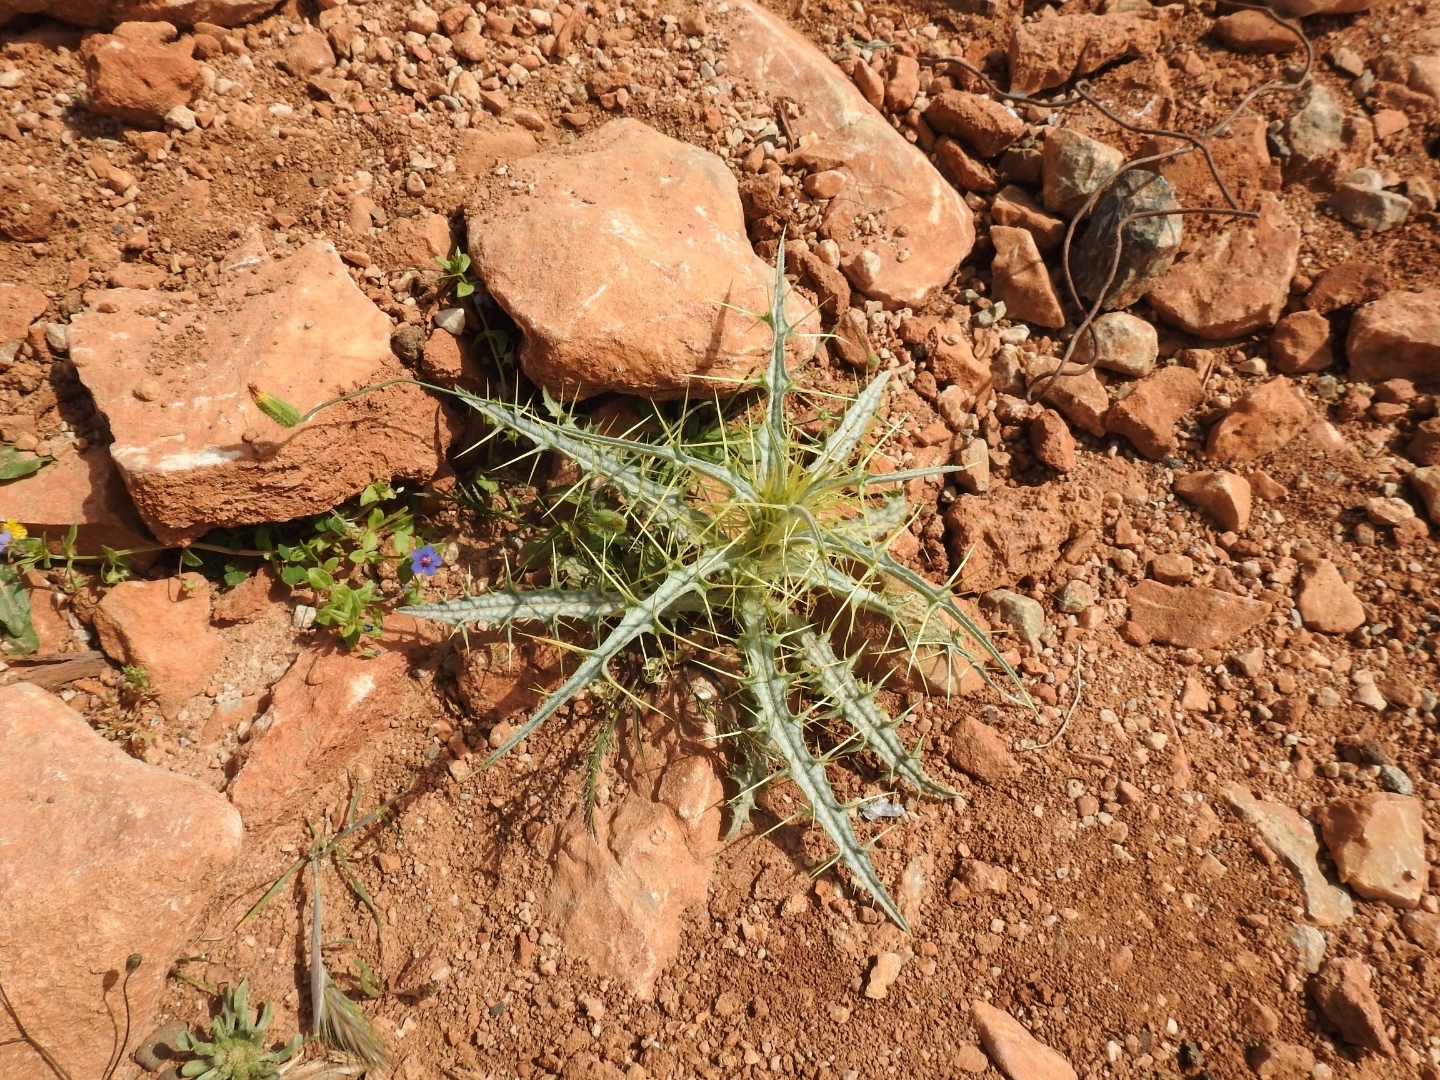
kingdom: Plantae
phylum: Tracheophyta
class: Magnoliopsida
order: Asterales
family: Asteraceae
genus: Picnomon
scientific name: Picnomon acarna
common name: Soldier thistle
